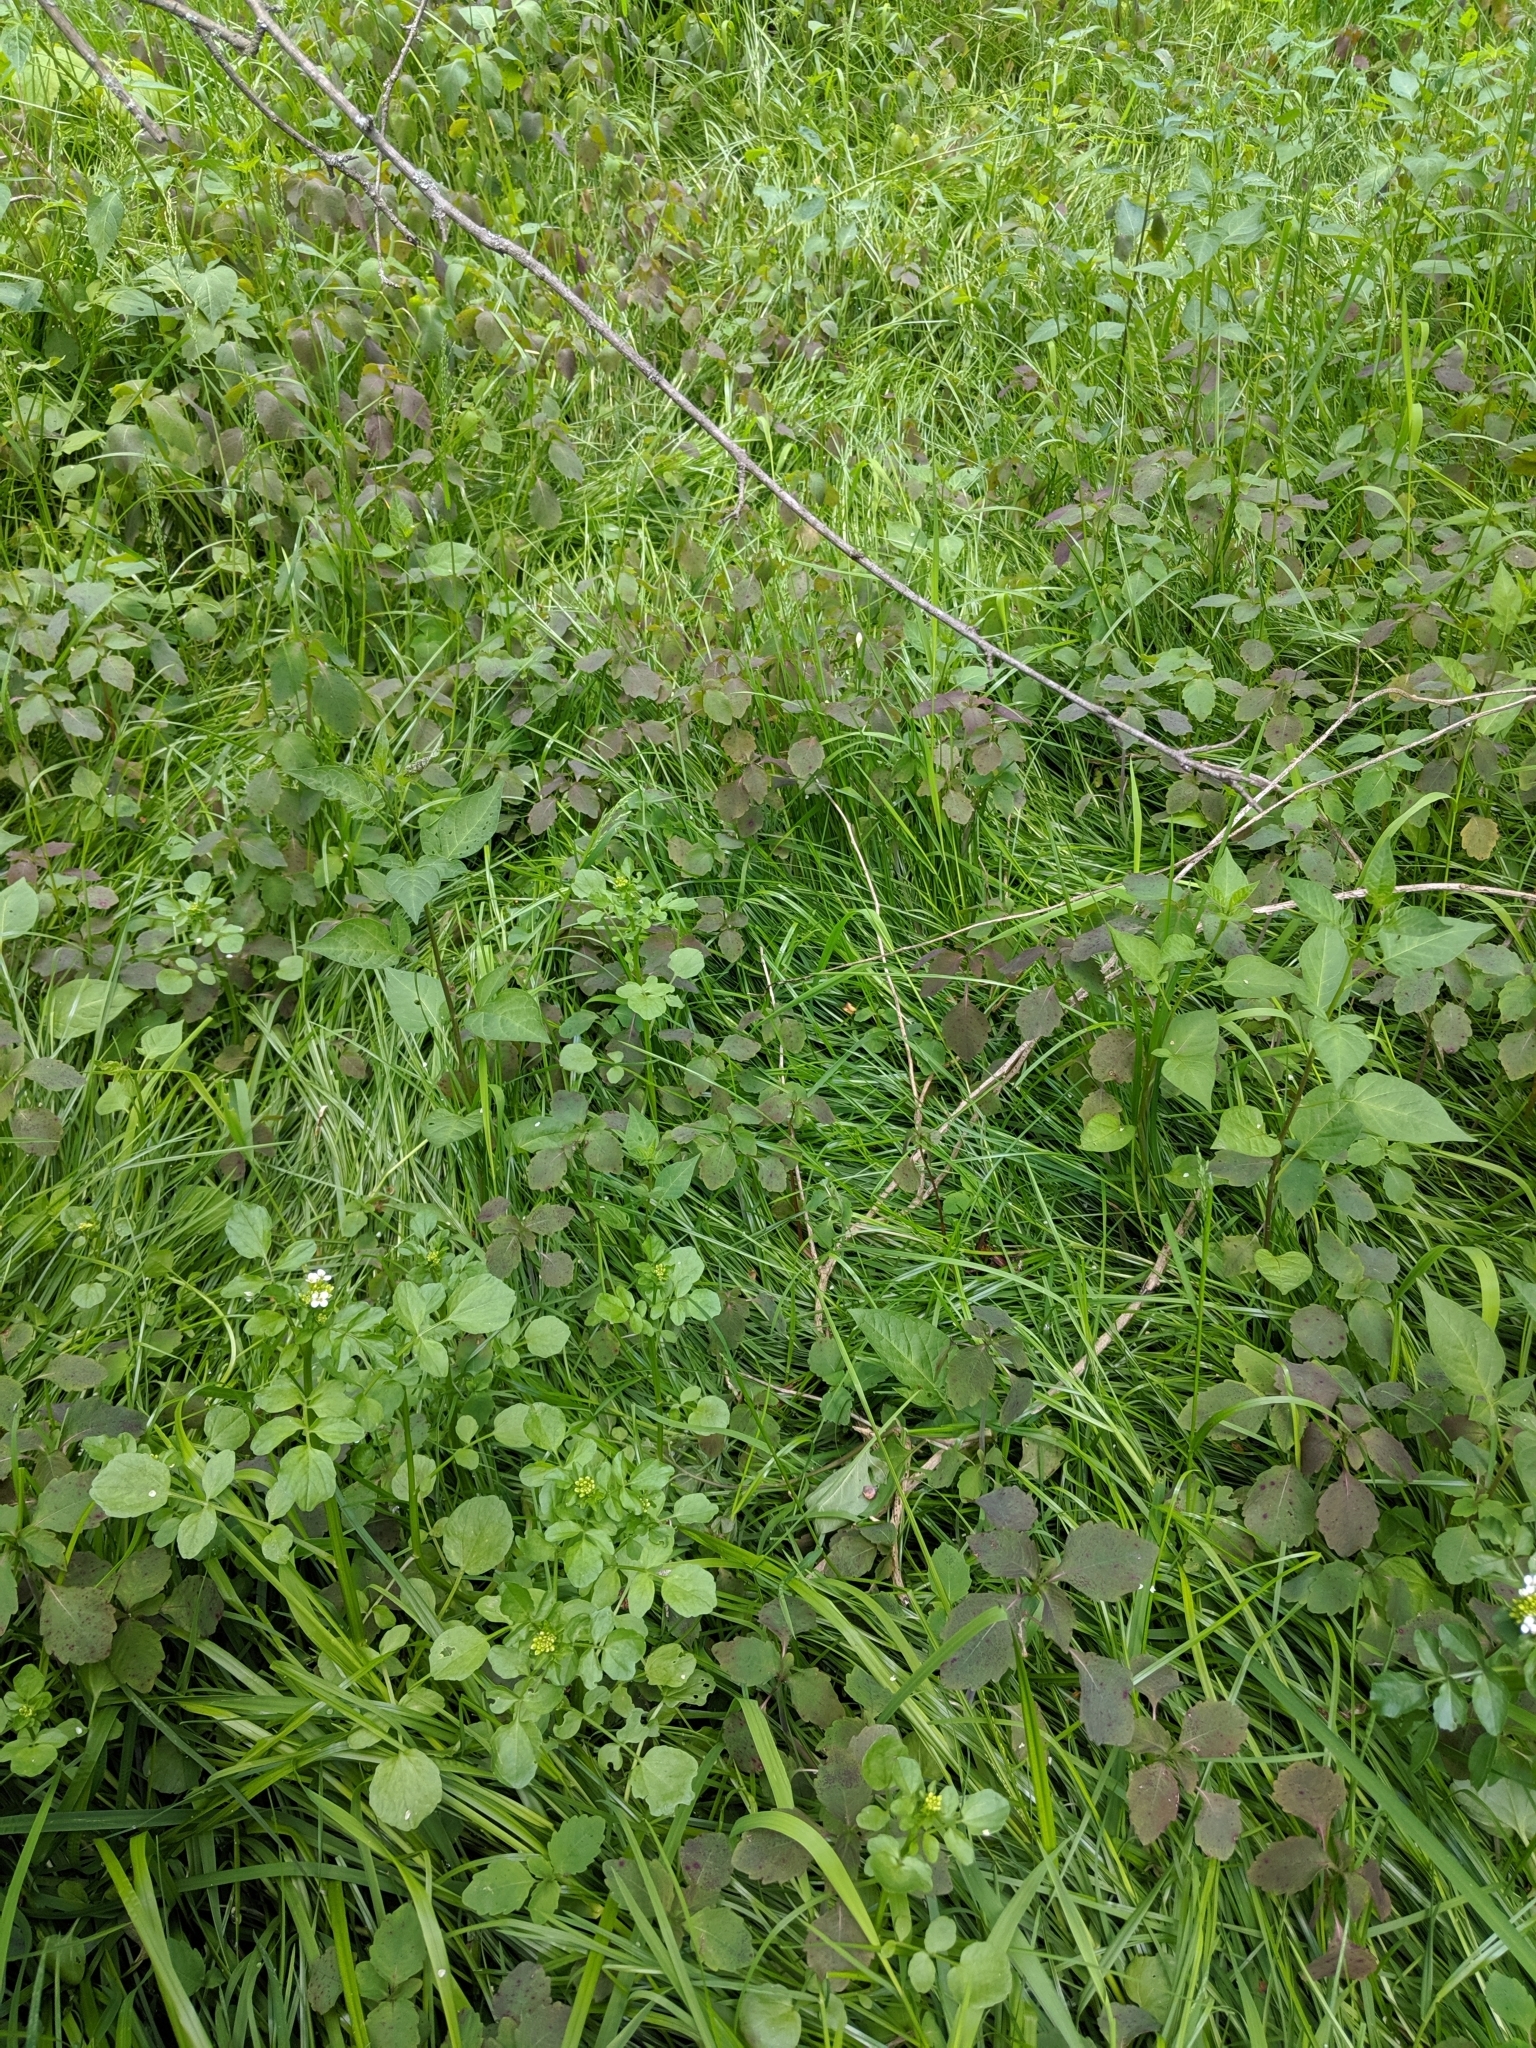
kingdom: Plantae
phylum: Tracheophyta
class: Magnoliopsida
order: Brassicales
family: Brassicaceae
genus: Nasturtium
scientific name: Nasturtium officinale
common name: Watercress
